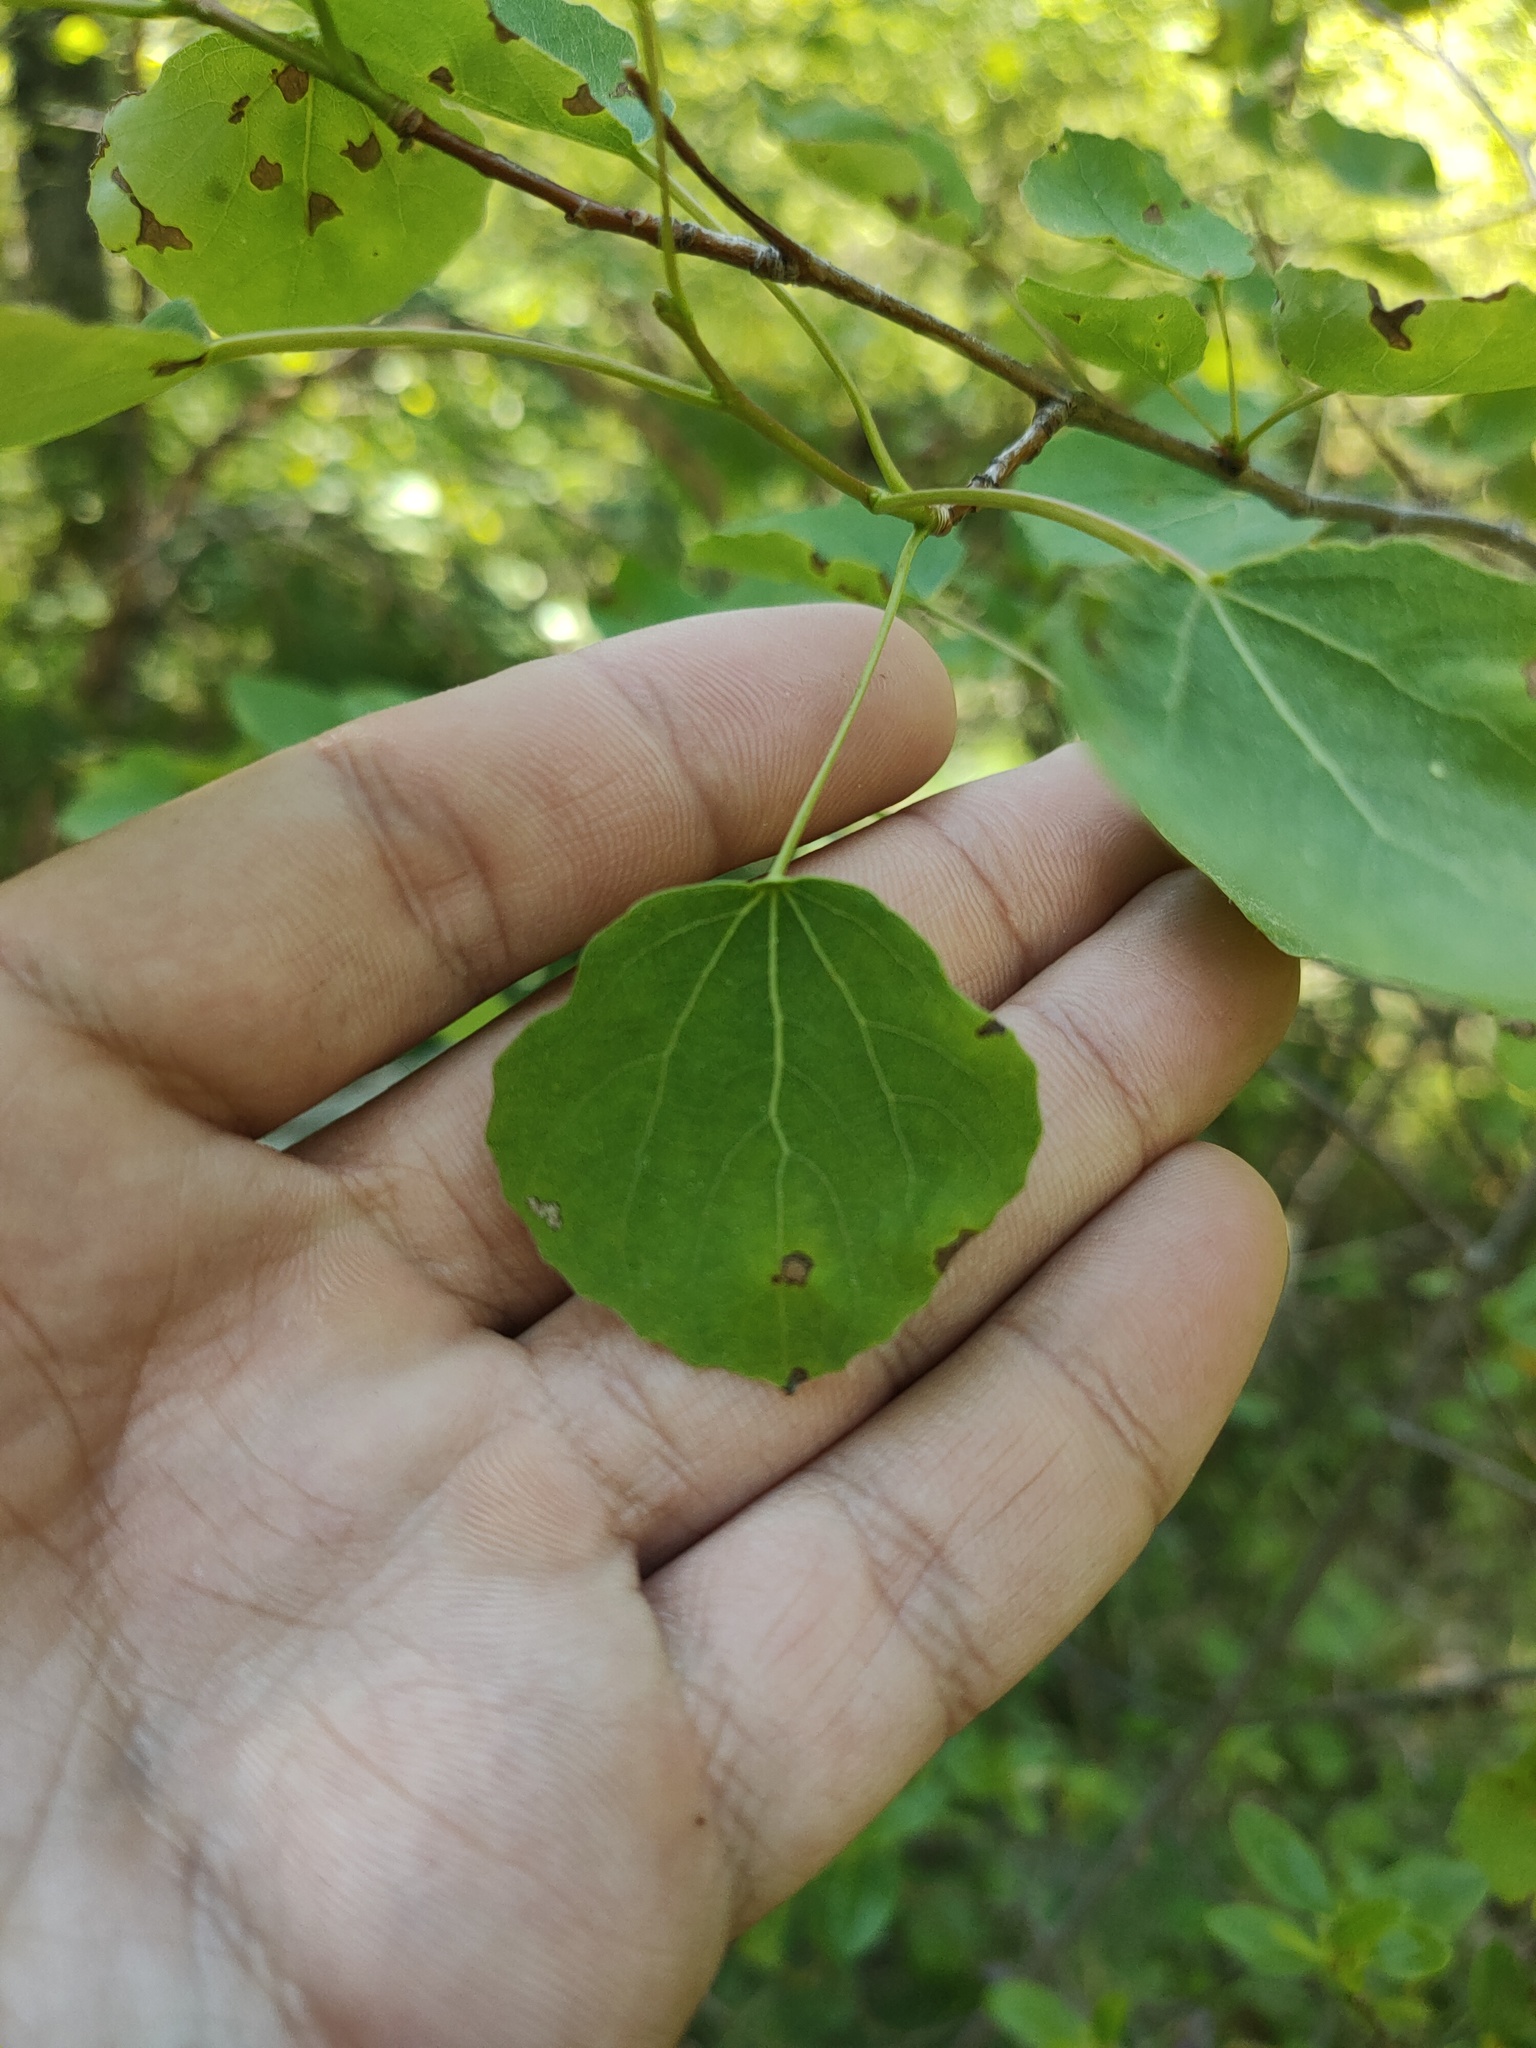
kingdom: Plantae
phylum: Tracheophyta
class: Magnoliopsida
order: Malpighiales
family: Salicaceae
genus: Populus
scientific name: Populus tremula
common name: European aspen
